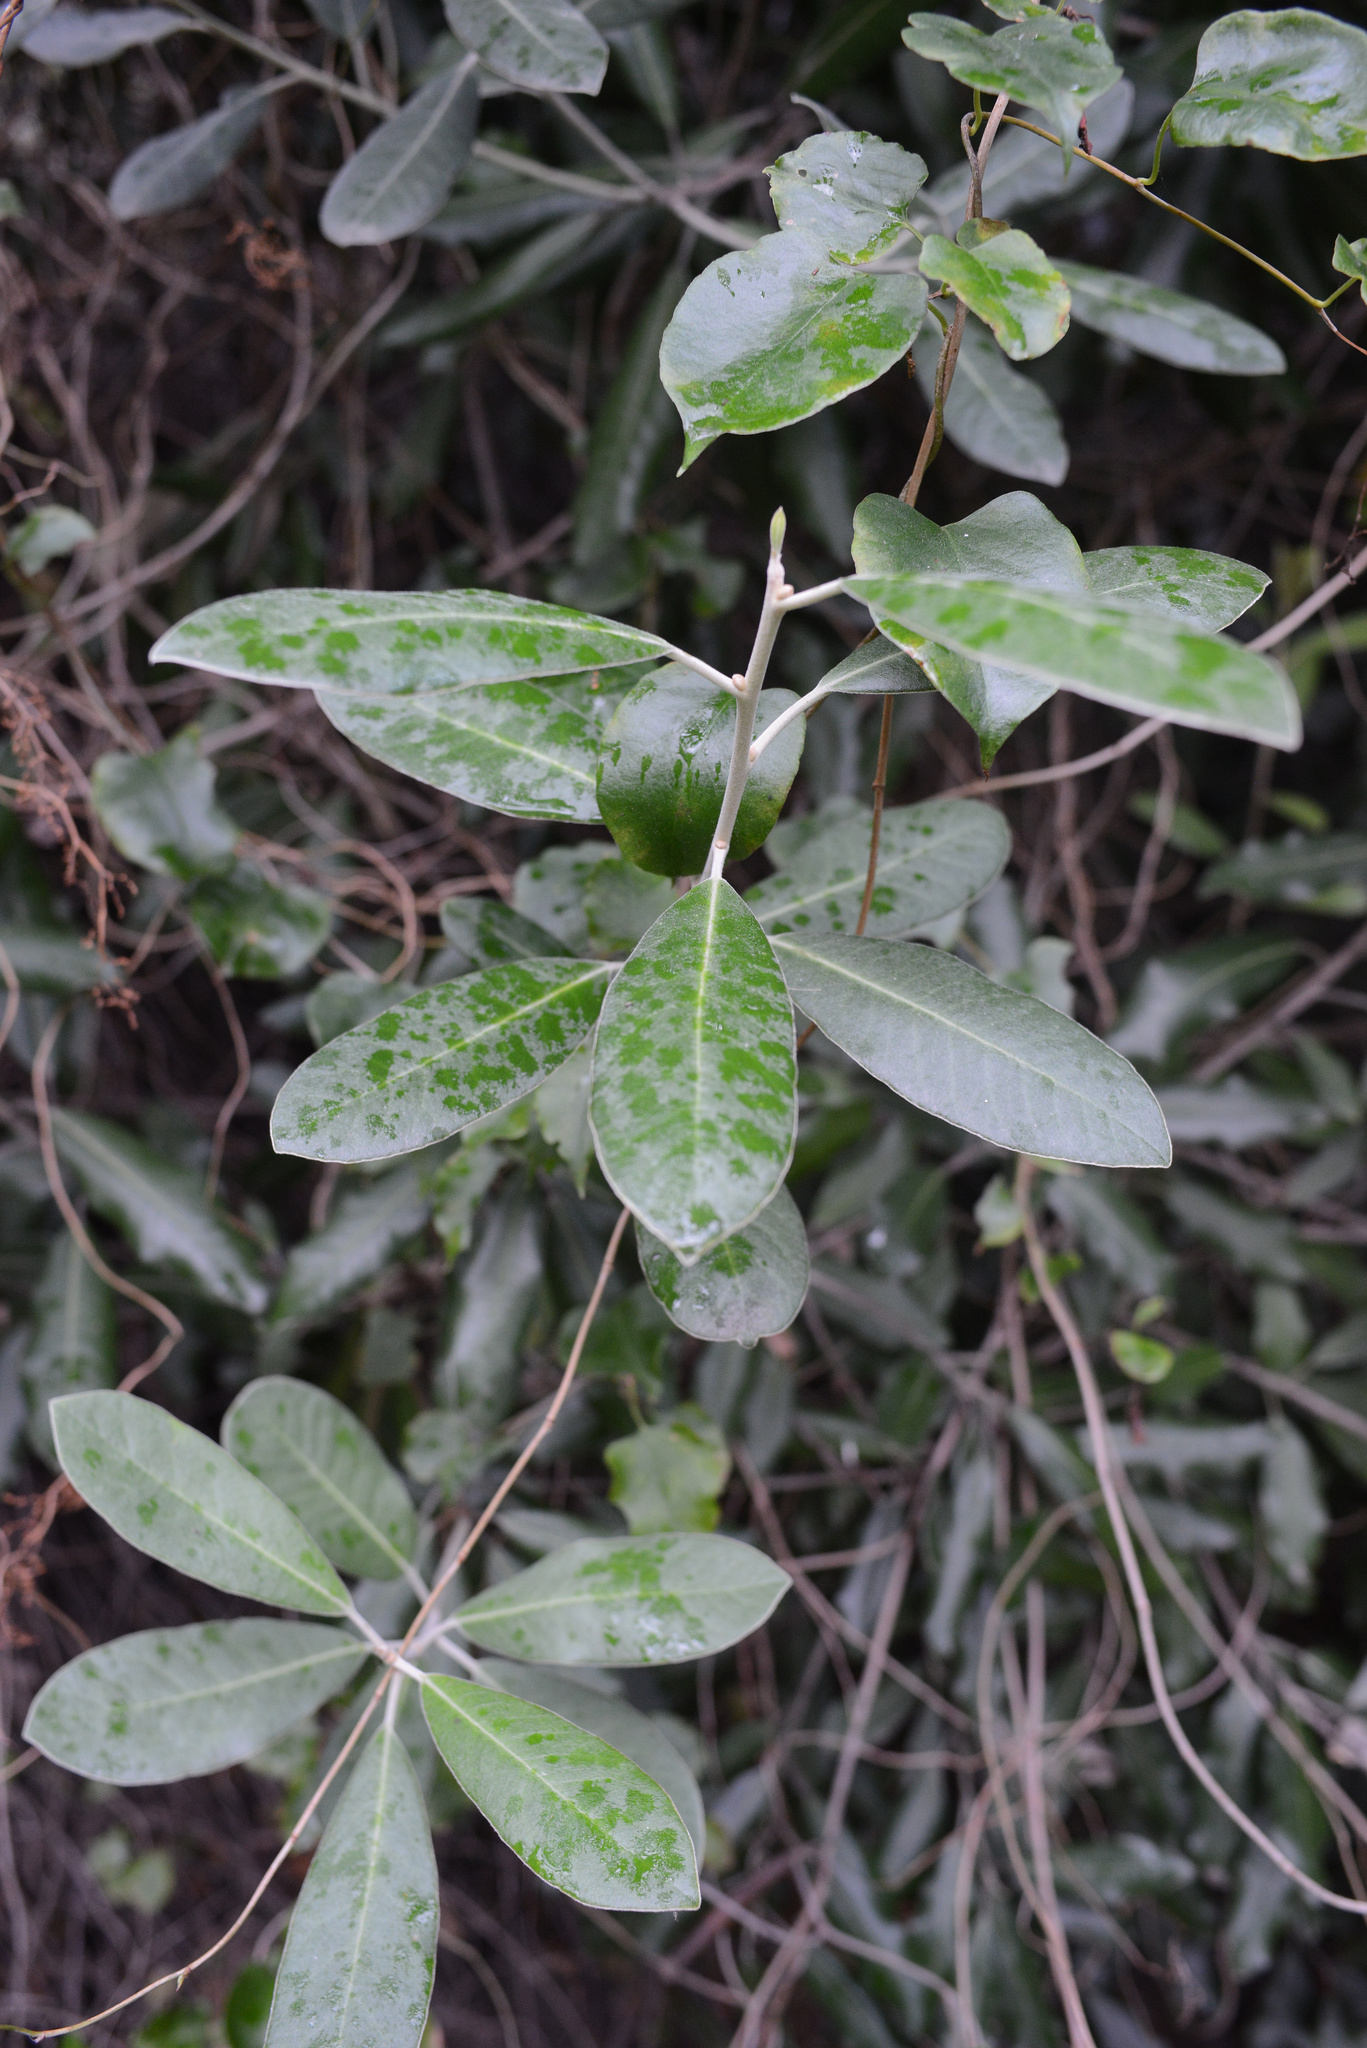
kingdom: Plantae
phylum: Tracheophyta
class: Magnoliopsida
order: Apiales
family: Pittosporaceae
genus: Pittosporum
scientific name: Pittosporum ralphii
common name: Ralph's desertwillow
